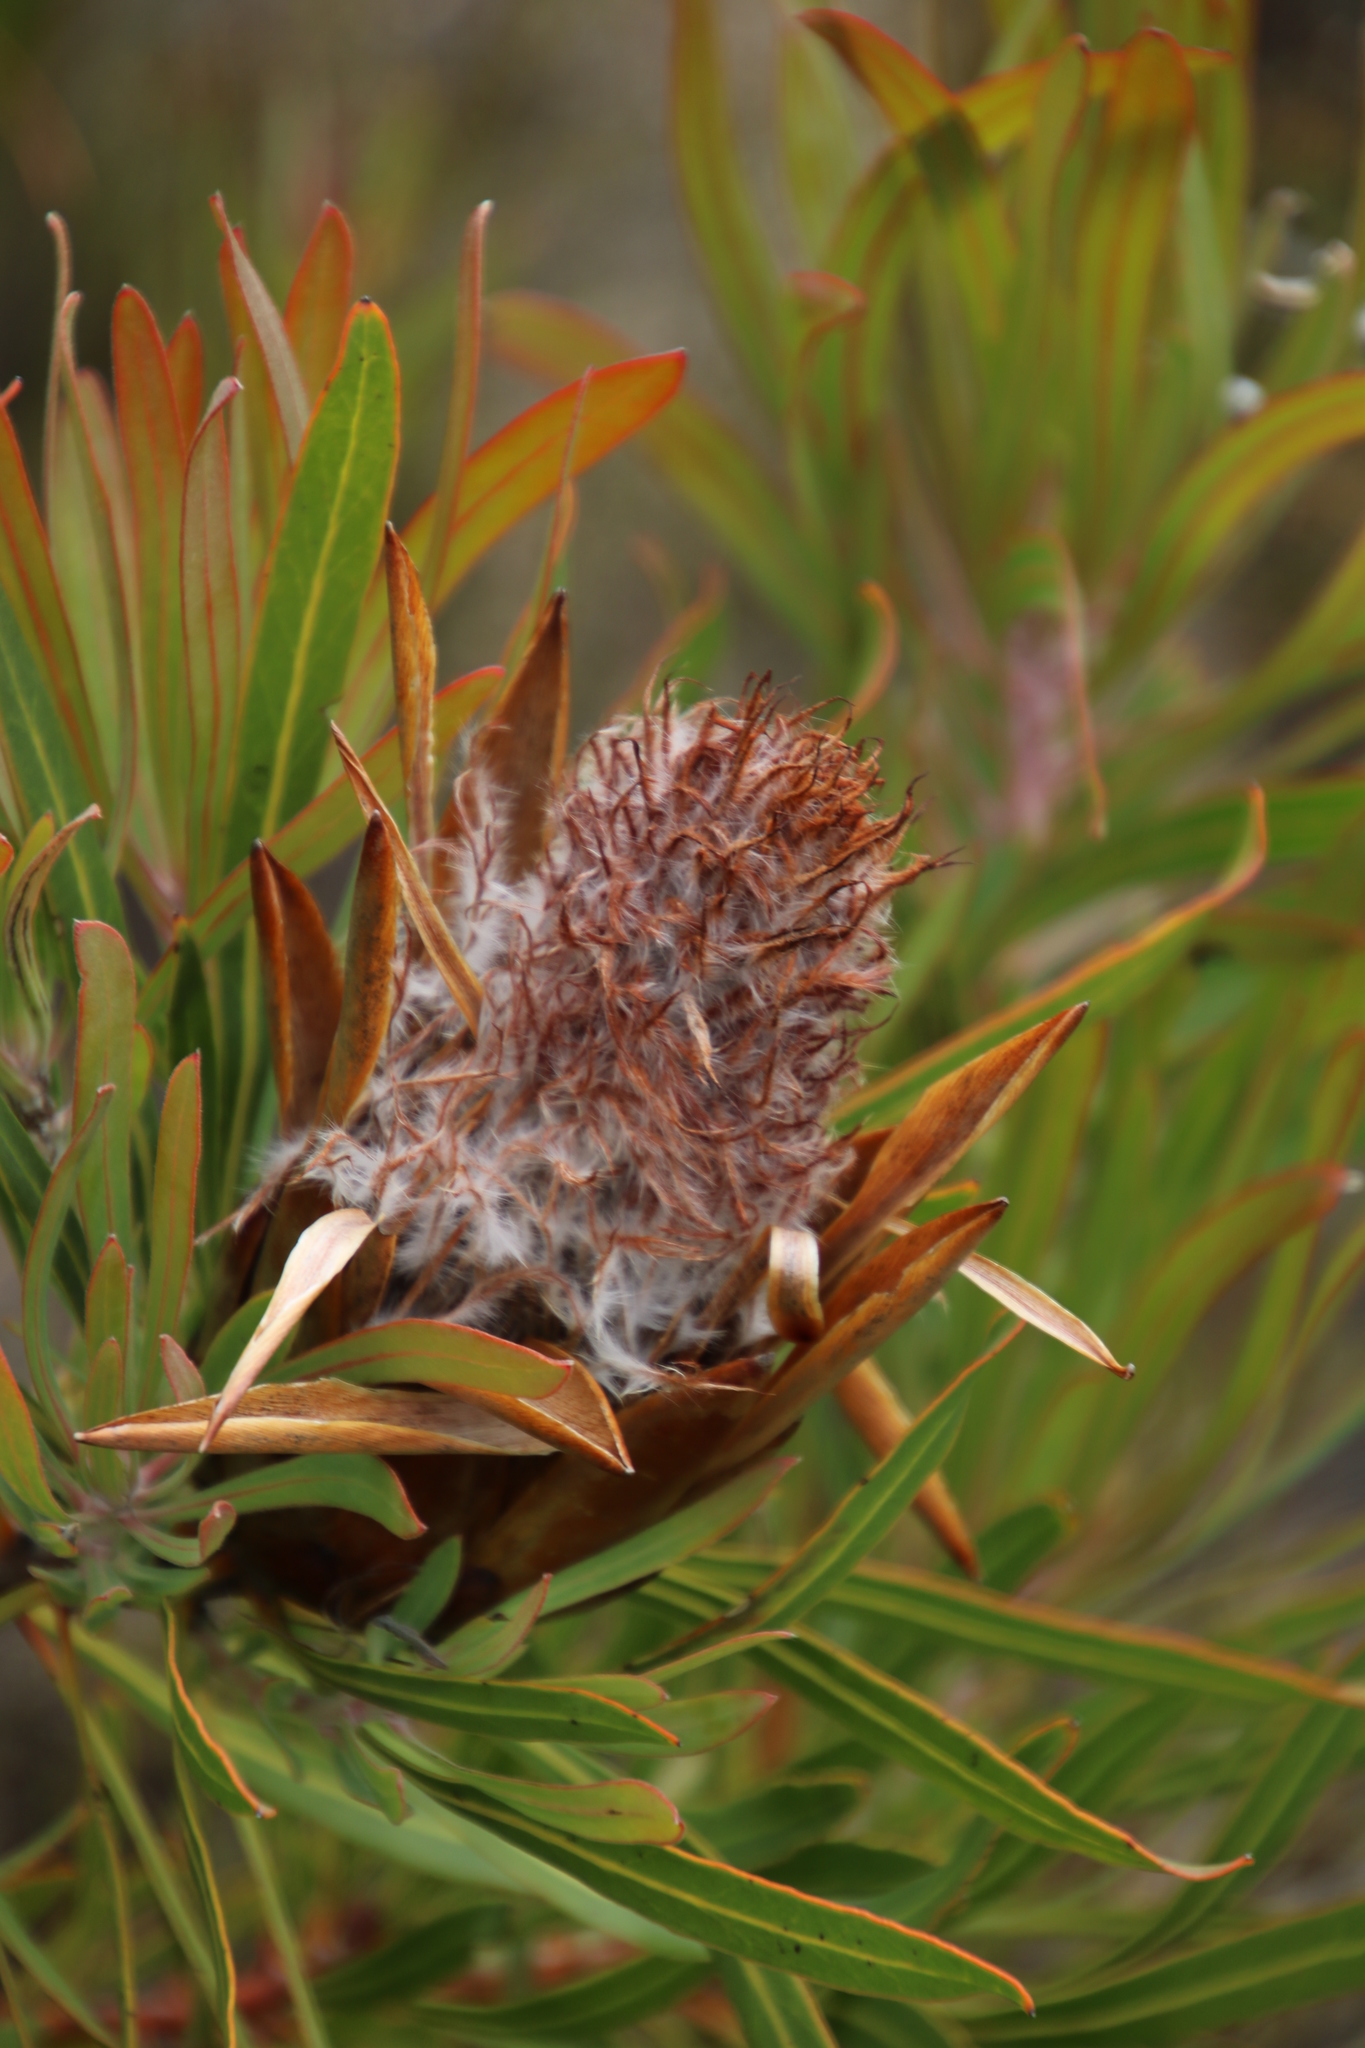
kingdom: Plantae
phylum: Tracheophyta
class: Magnoliopsida
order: Proteales
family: Proteaceae
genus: Protea
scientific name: Protea longifolia
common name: Long-leaf sugarbush
